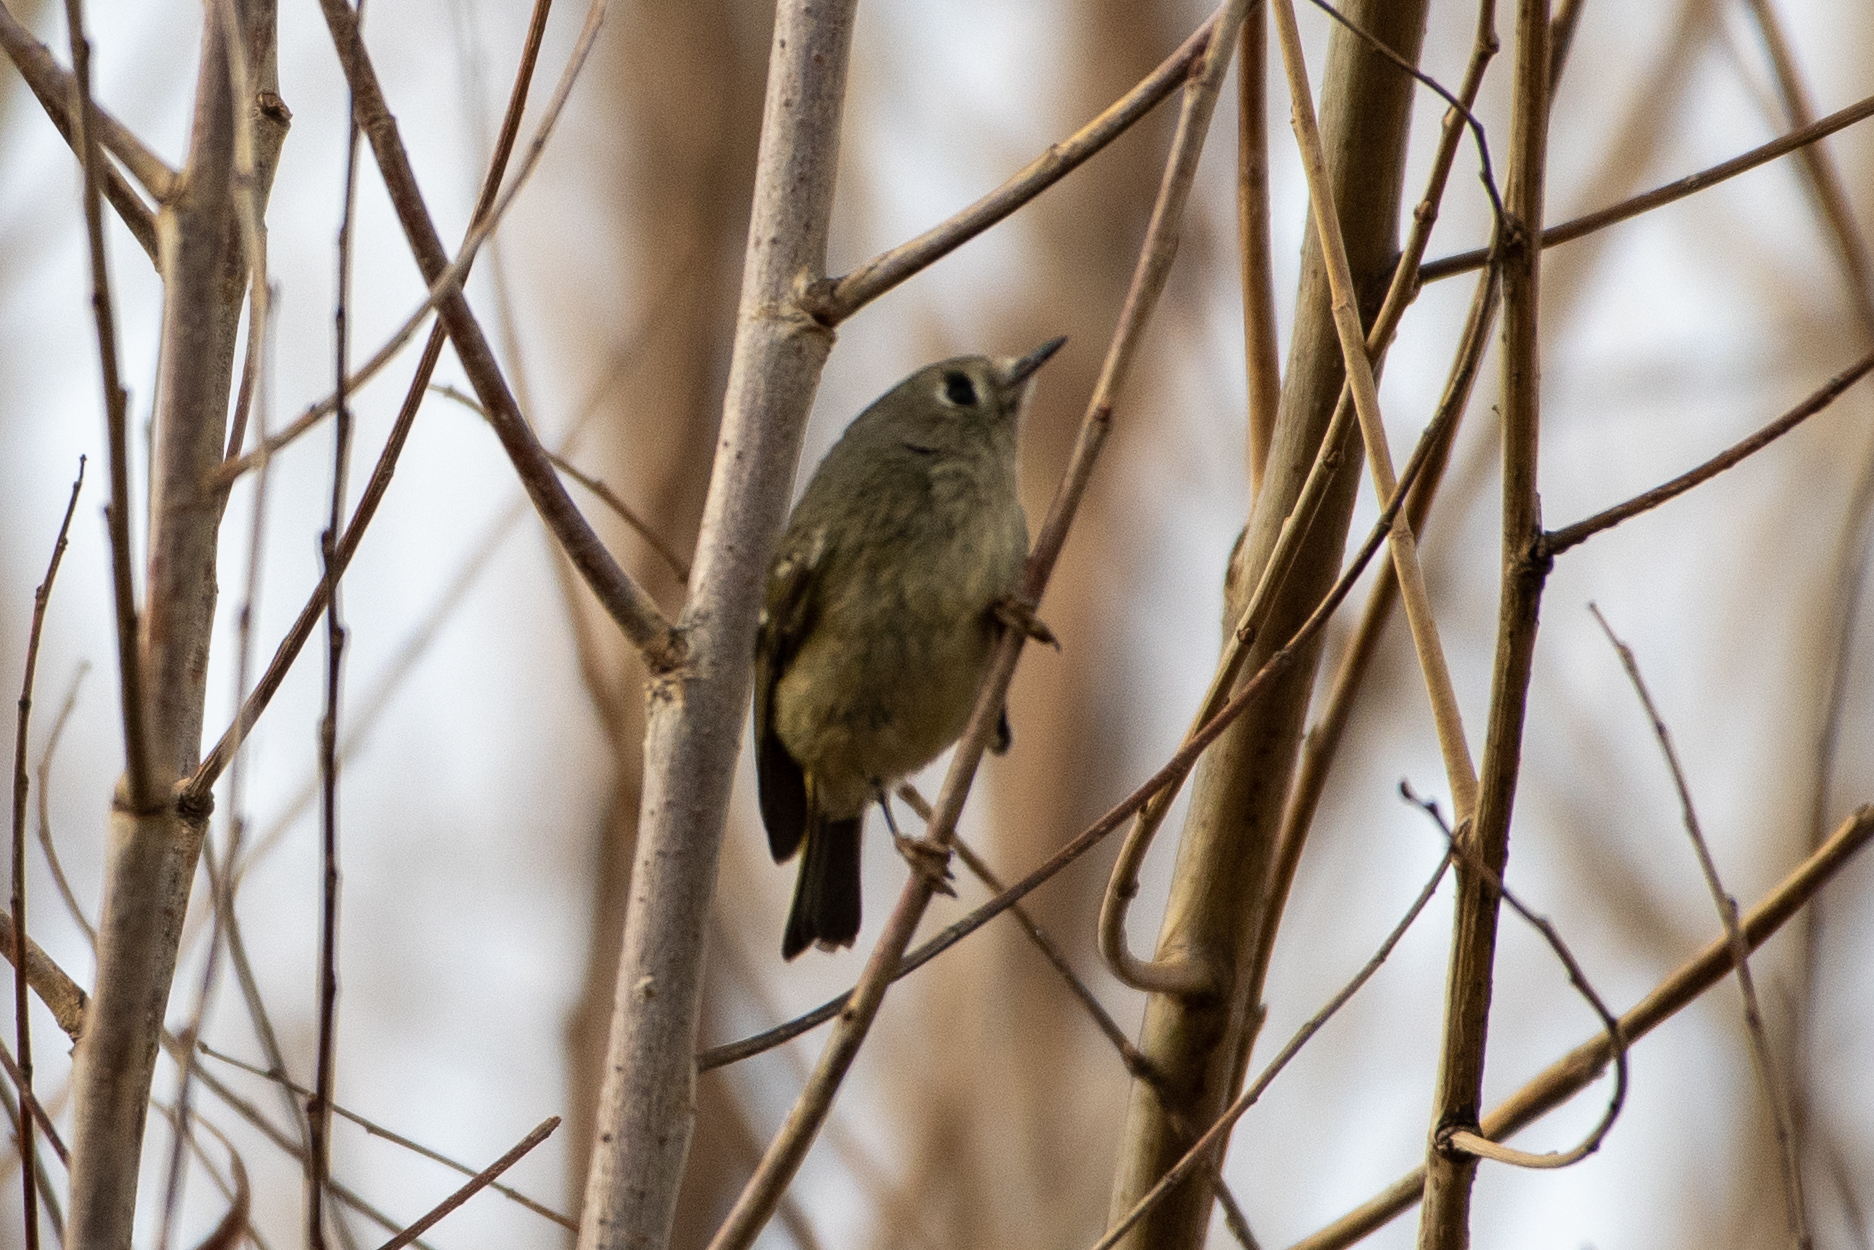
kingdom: Animalia
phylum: Chordata
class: Aves
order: Passeriformes
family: Regulidae
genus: Regulus
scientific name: Regulus calendula
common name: Ruby-crowned kinglet
